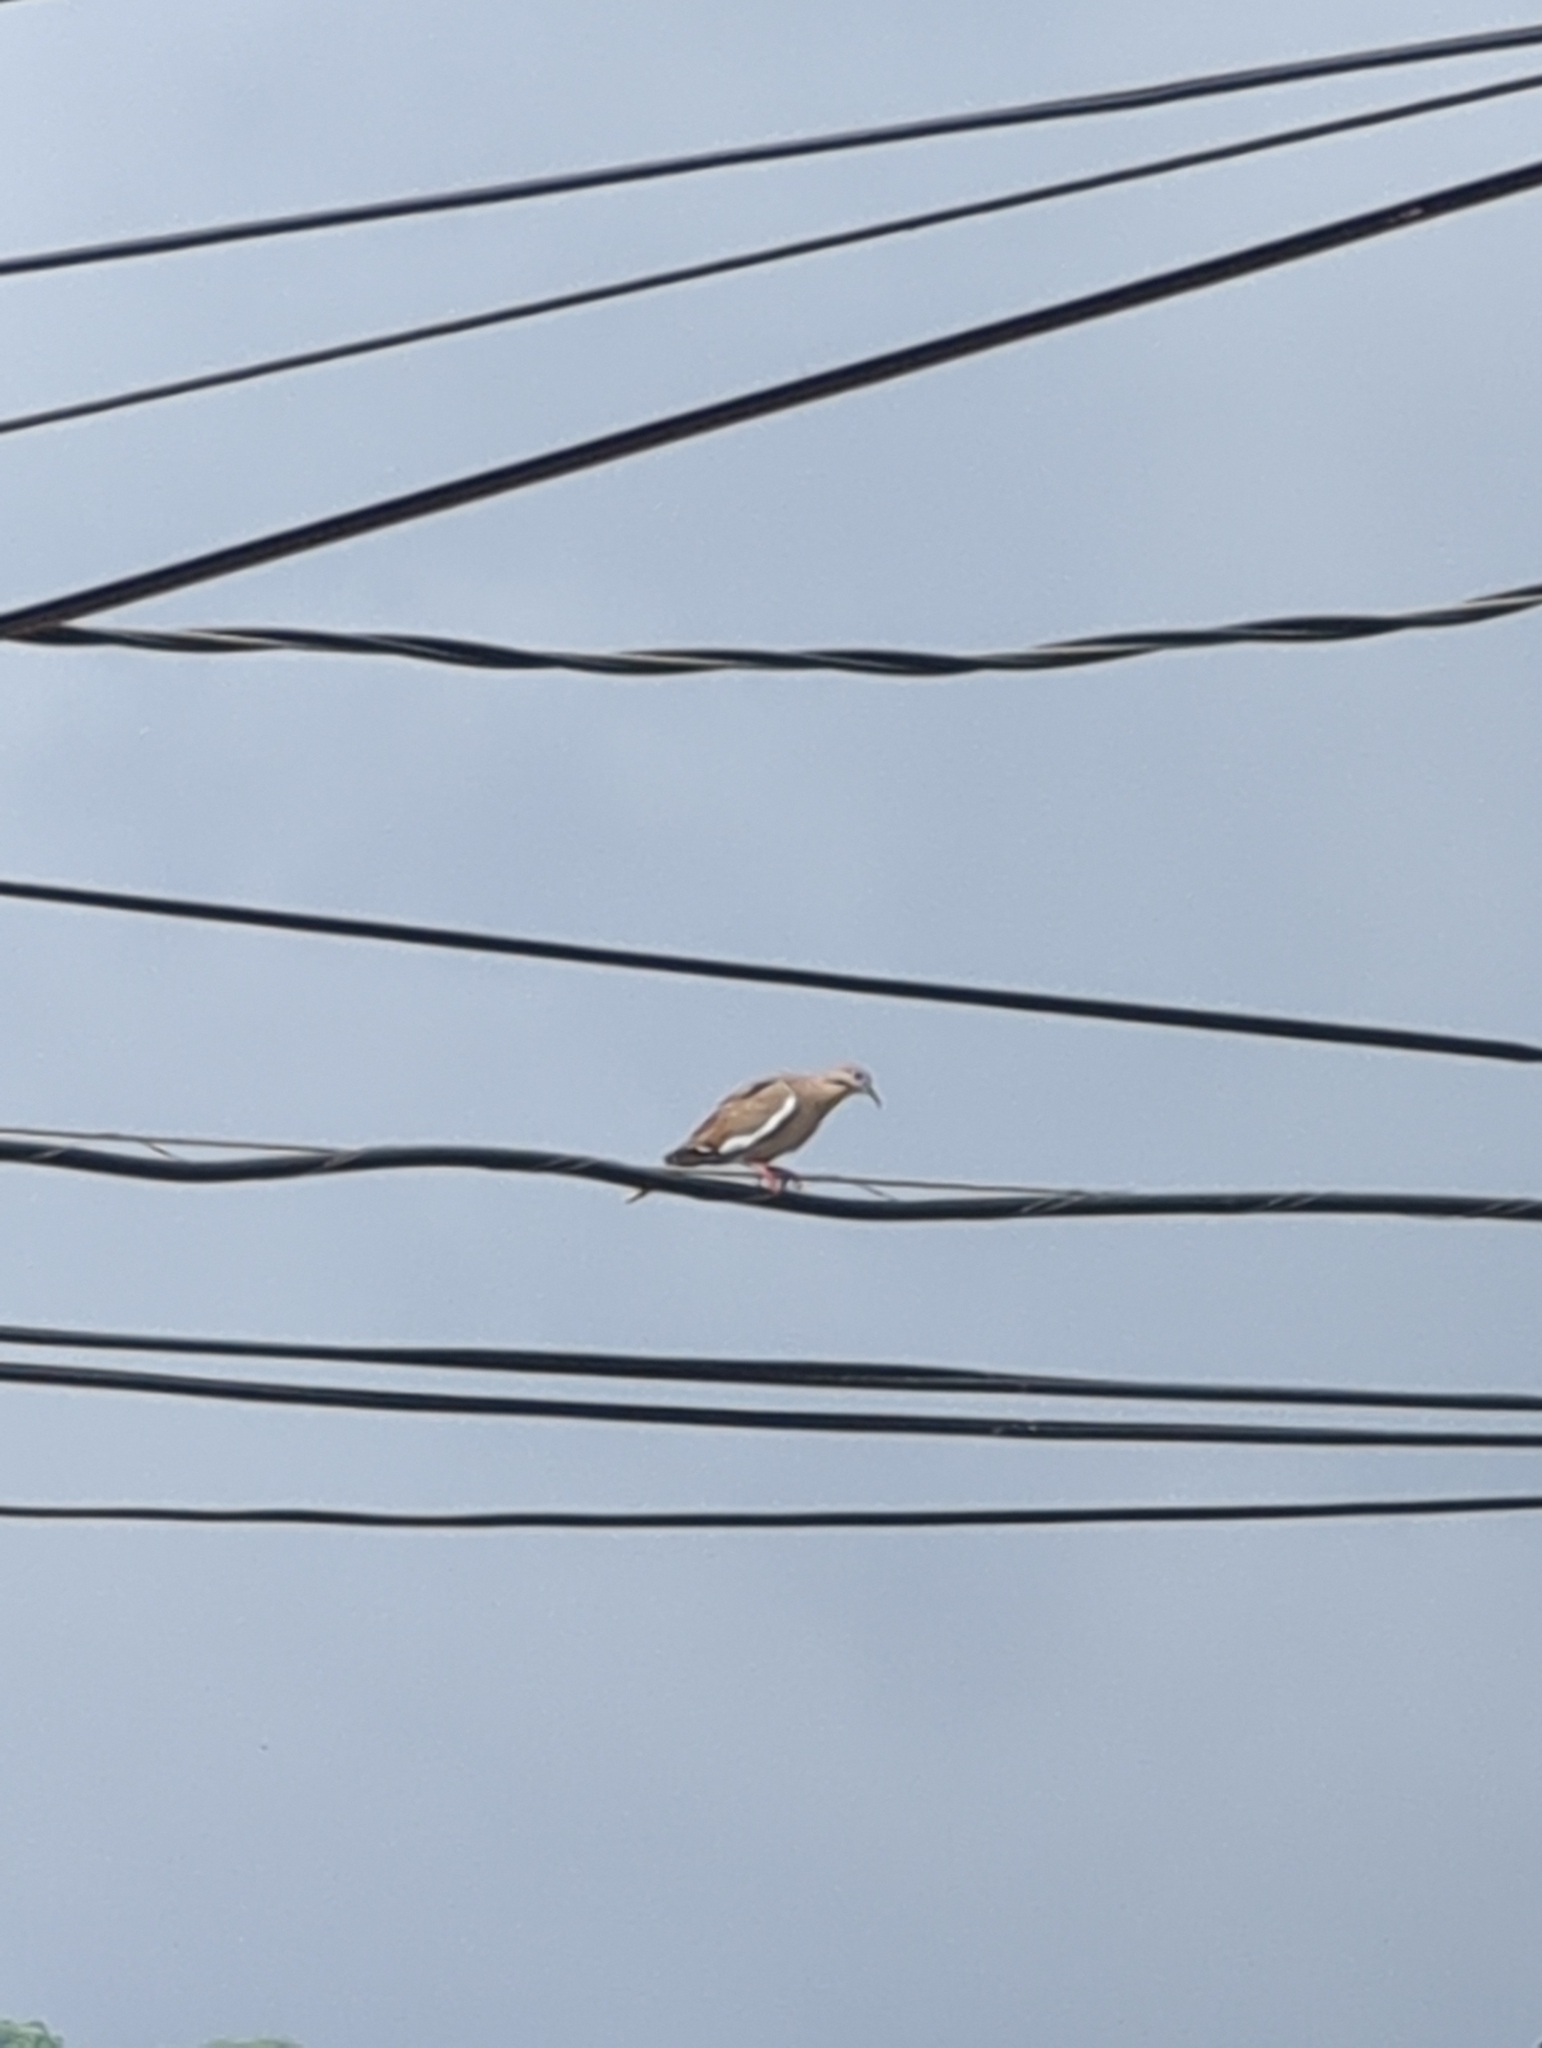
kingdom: Animalia
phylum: Chordata
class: Aves
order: Columbiformes
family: Columbidae
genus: Zenaida
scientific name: Zenaida asiatica
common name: White-winged dove
